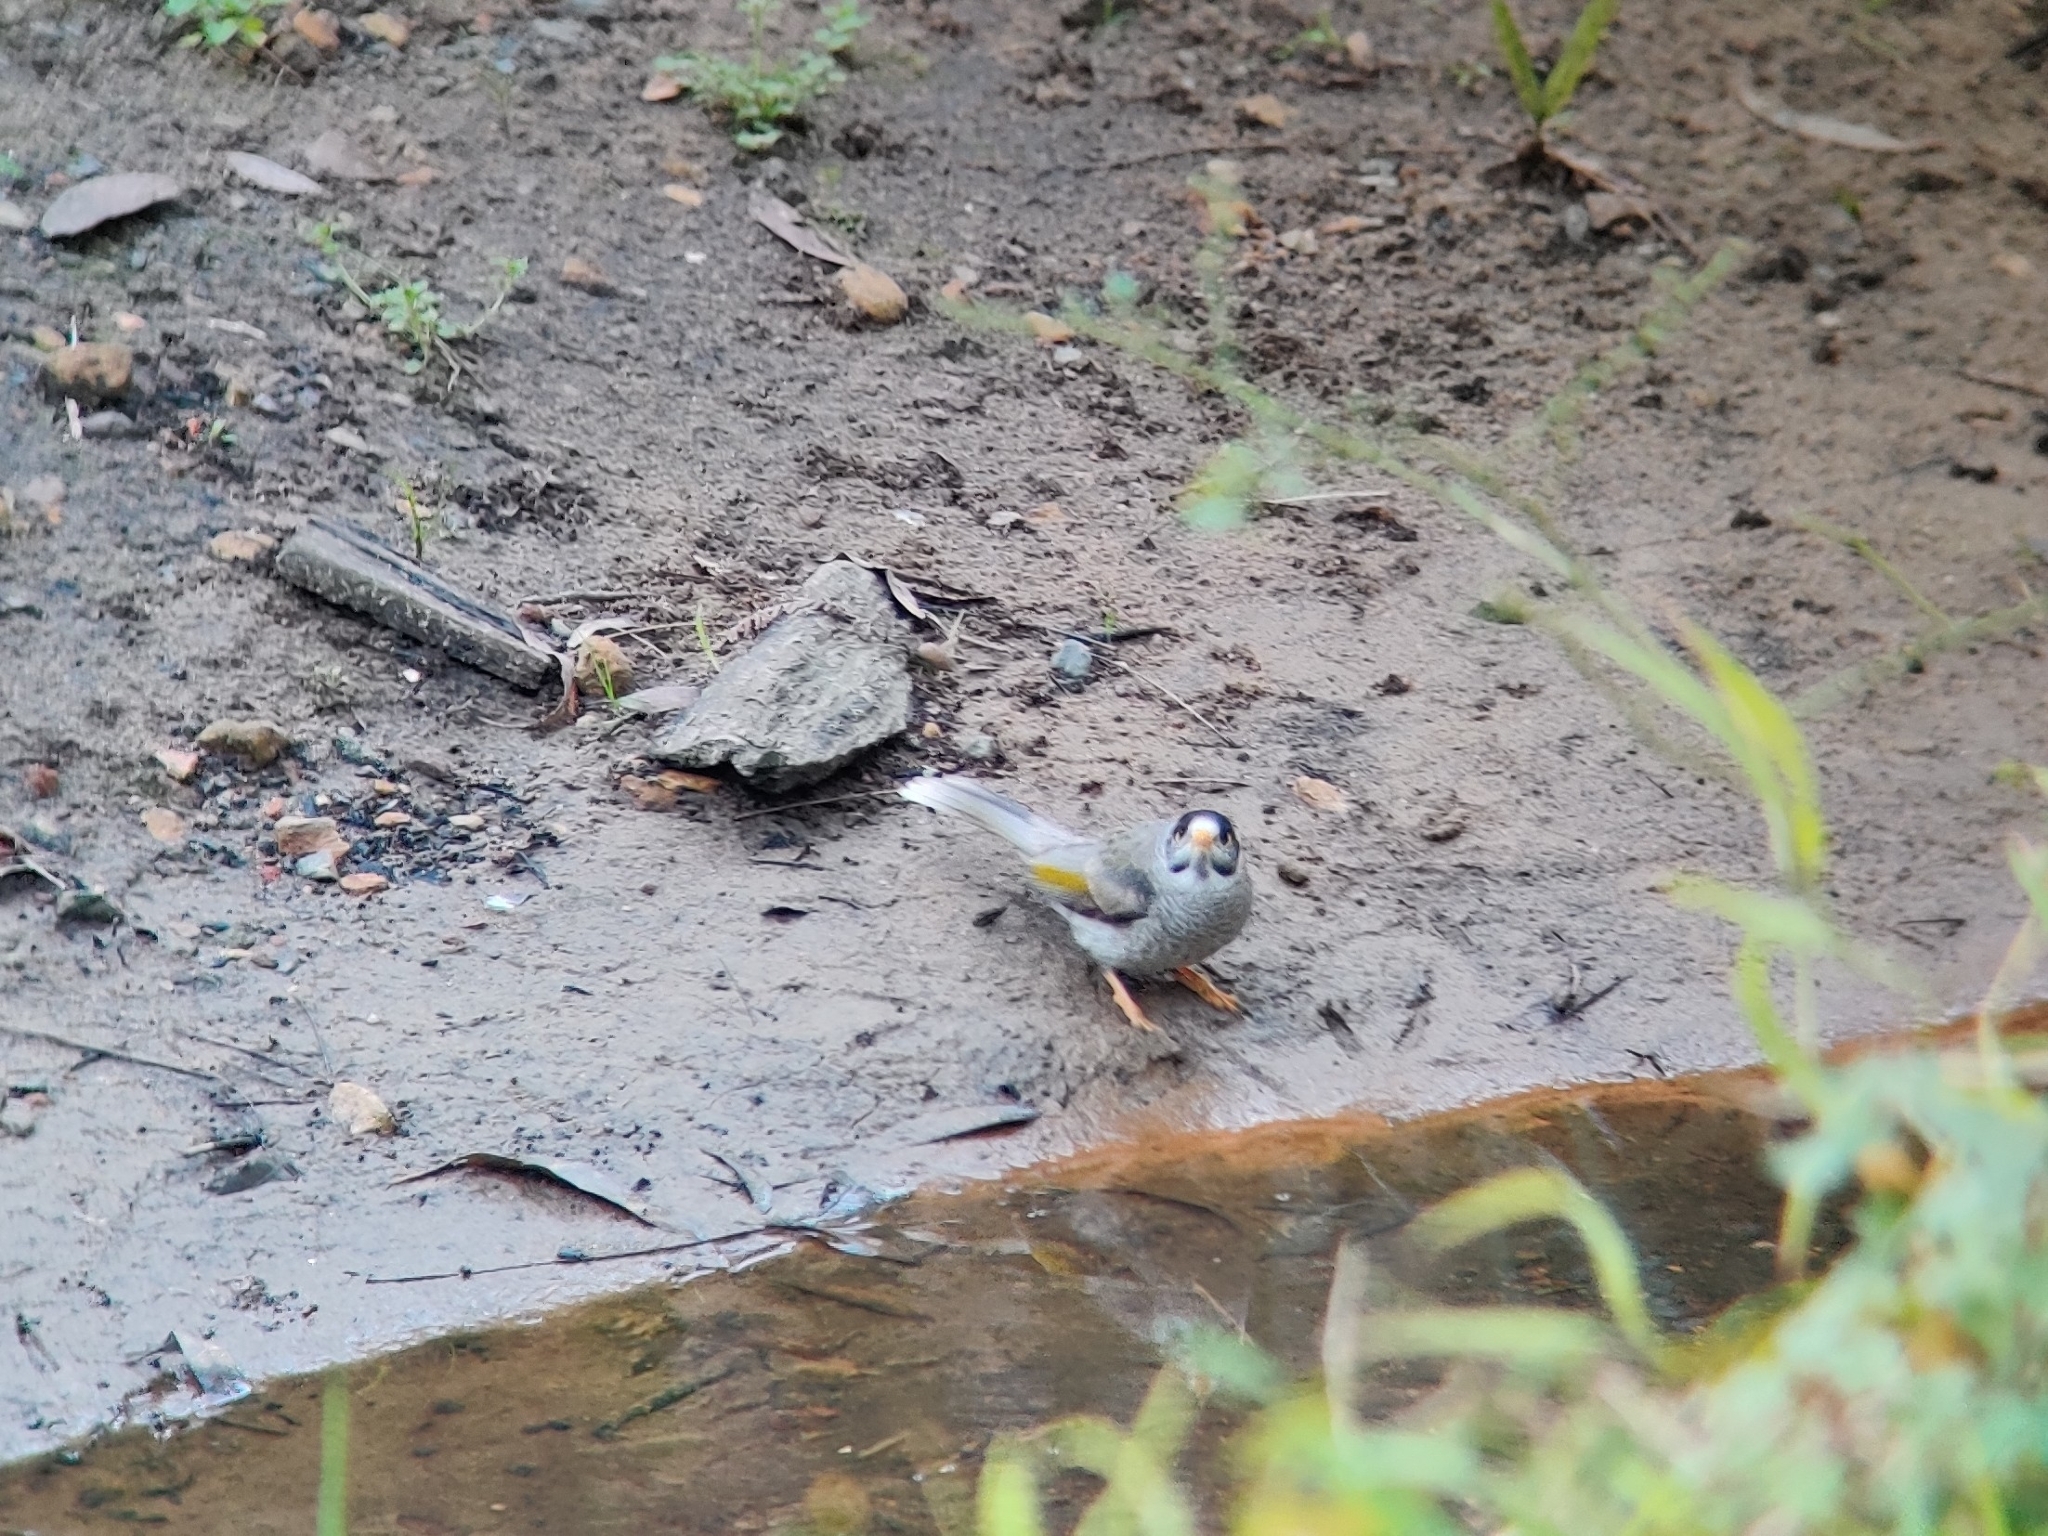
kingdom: Animalia
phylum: Chordata
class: Aves
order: Passeriformes
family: Meliphagidae
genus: Manorina
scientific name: Manorina melanocephala
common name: Noisy miner
